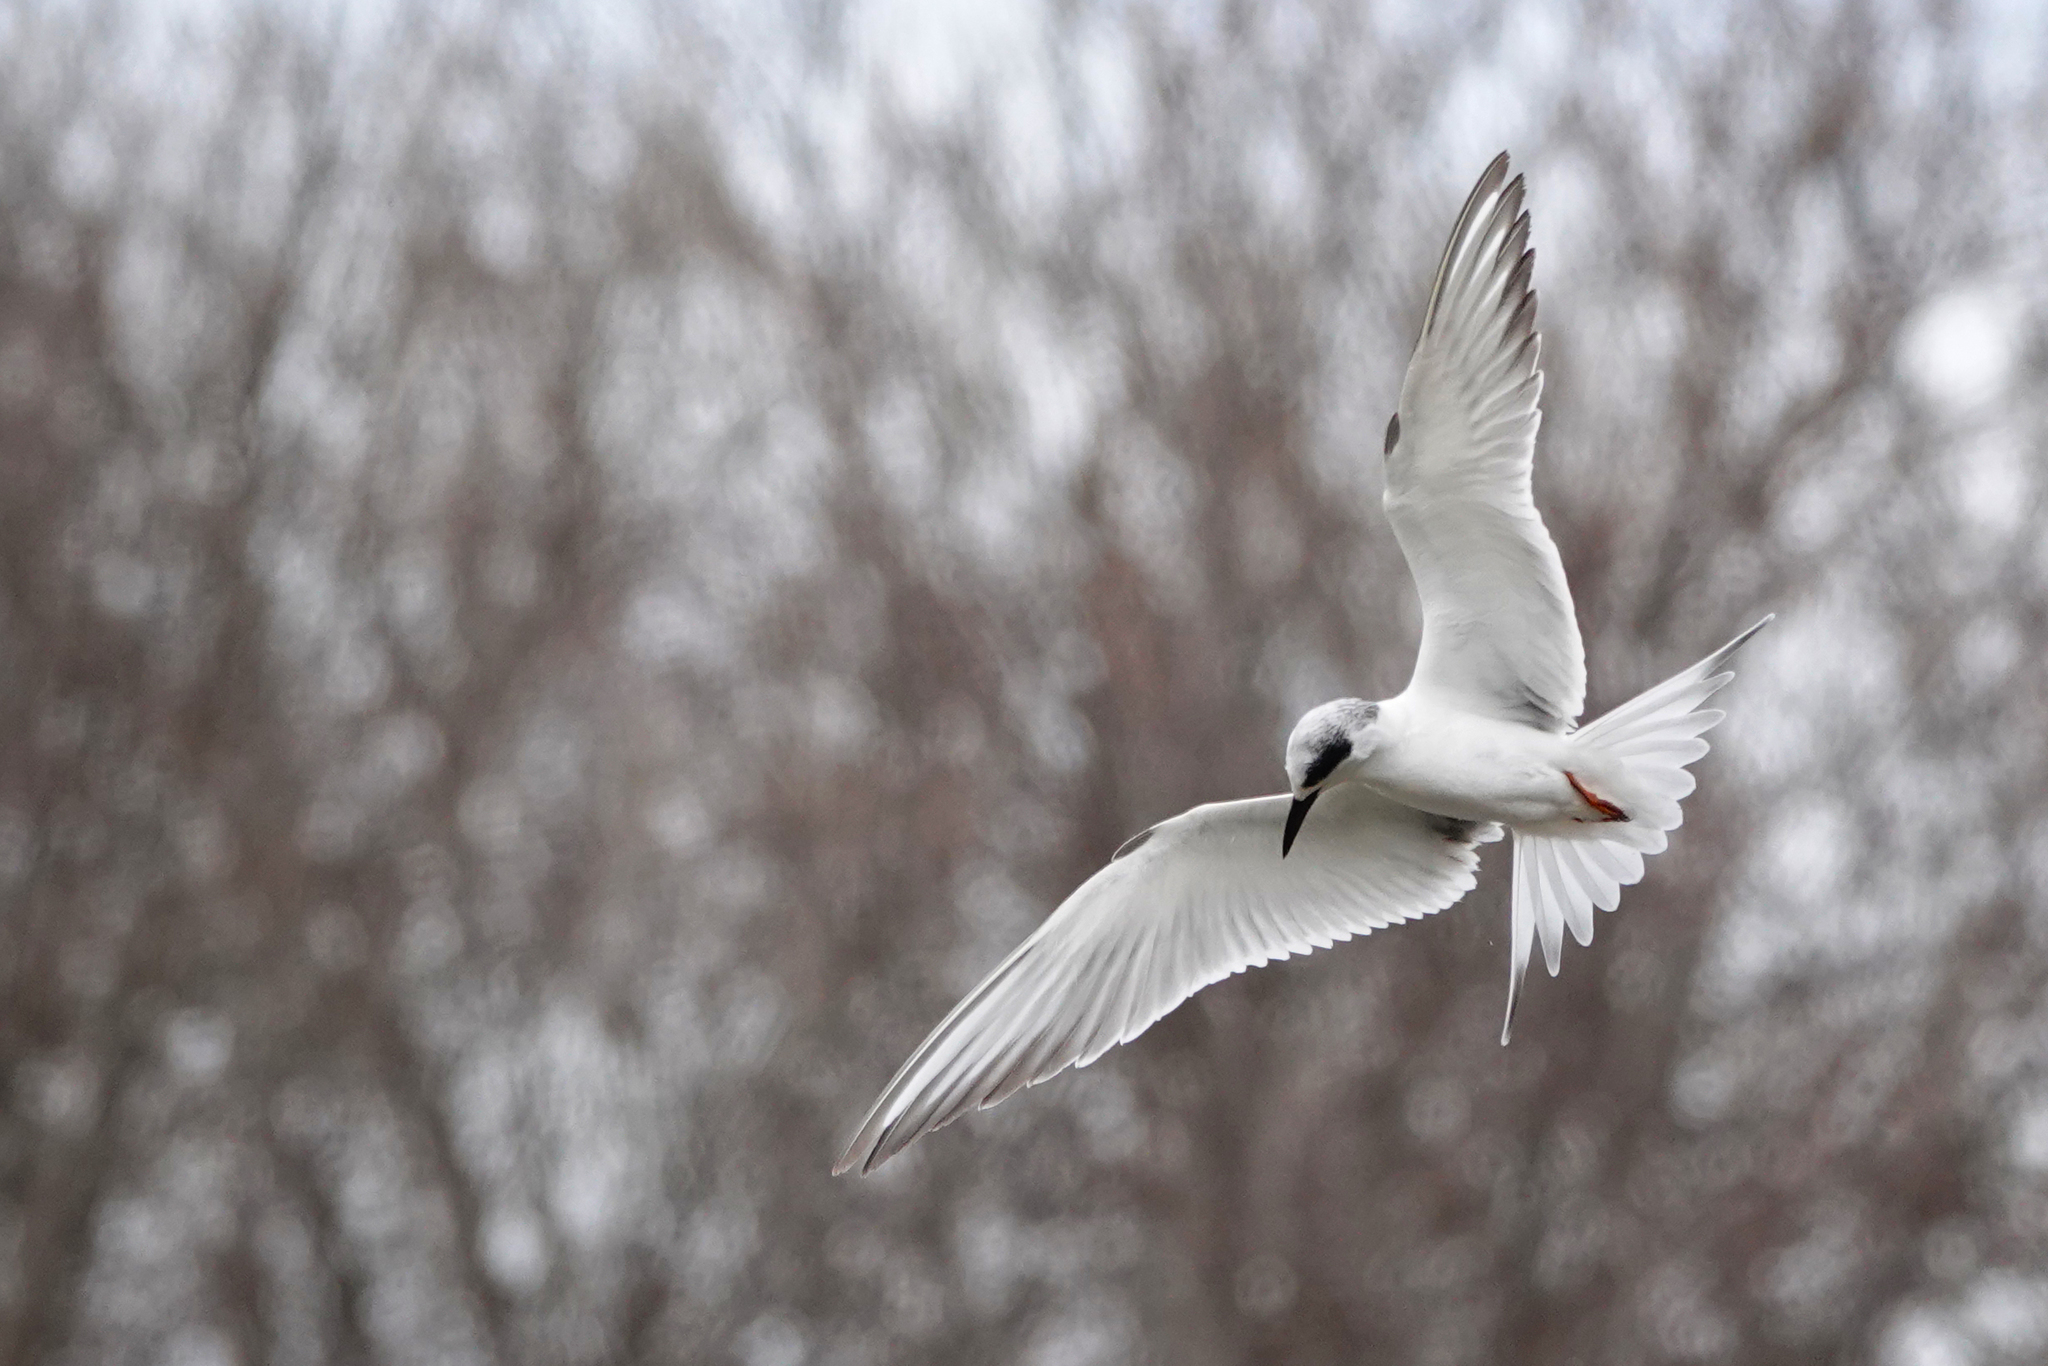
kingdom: Animalia
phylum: Chordata
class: Aves
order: Charadriiformes
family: Laridae
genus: Sterna
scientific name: Sterna forsteri
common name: Forster's tern
